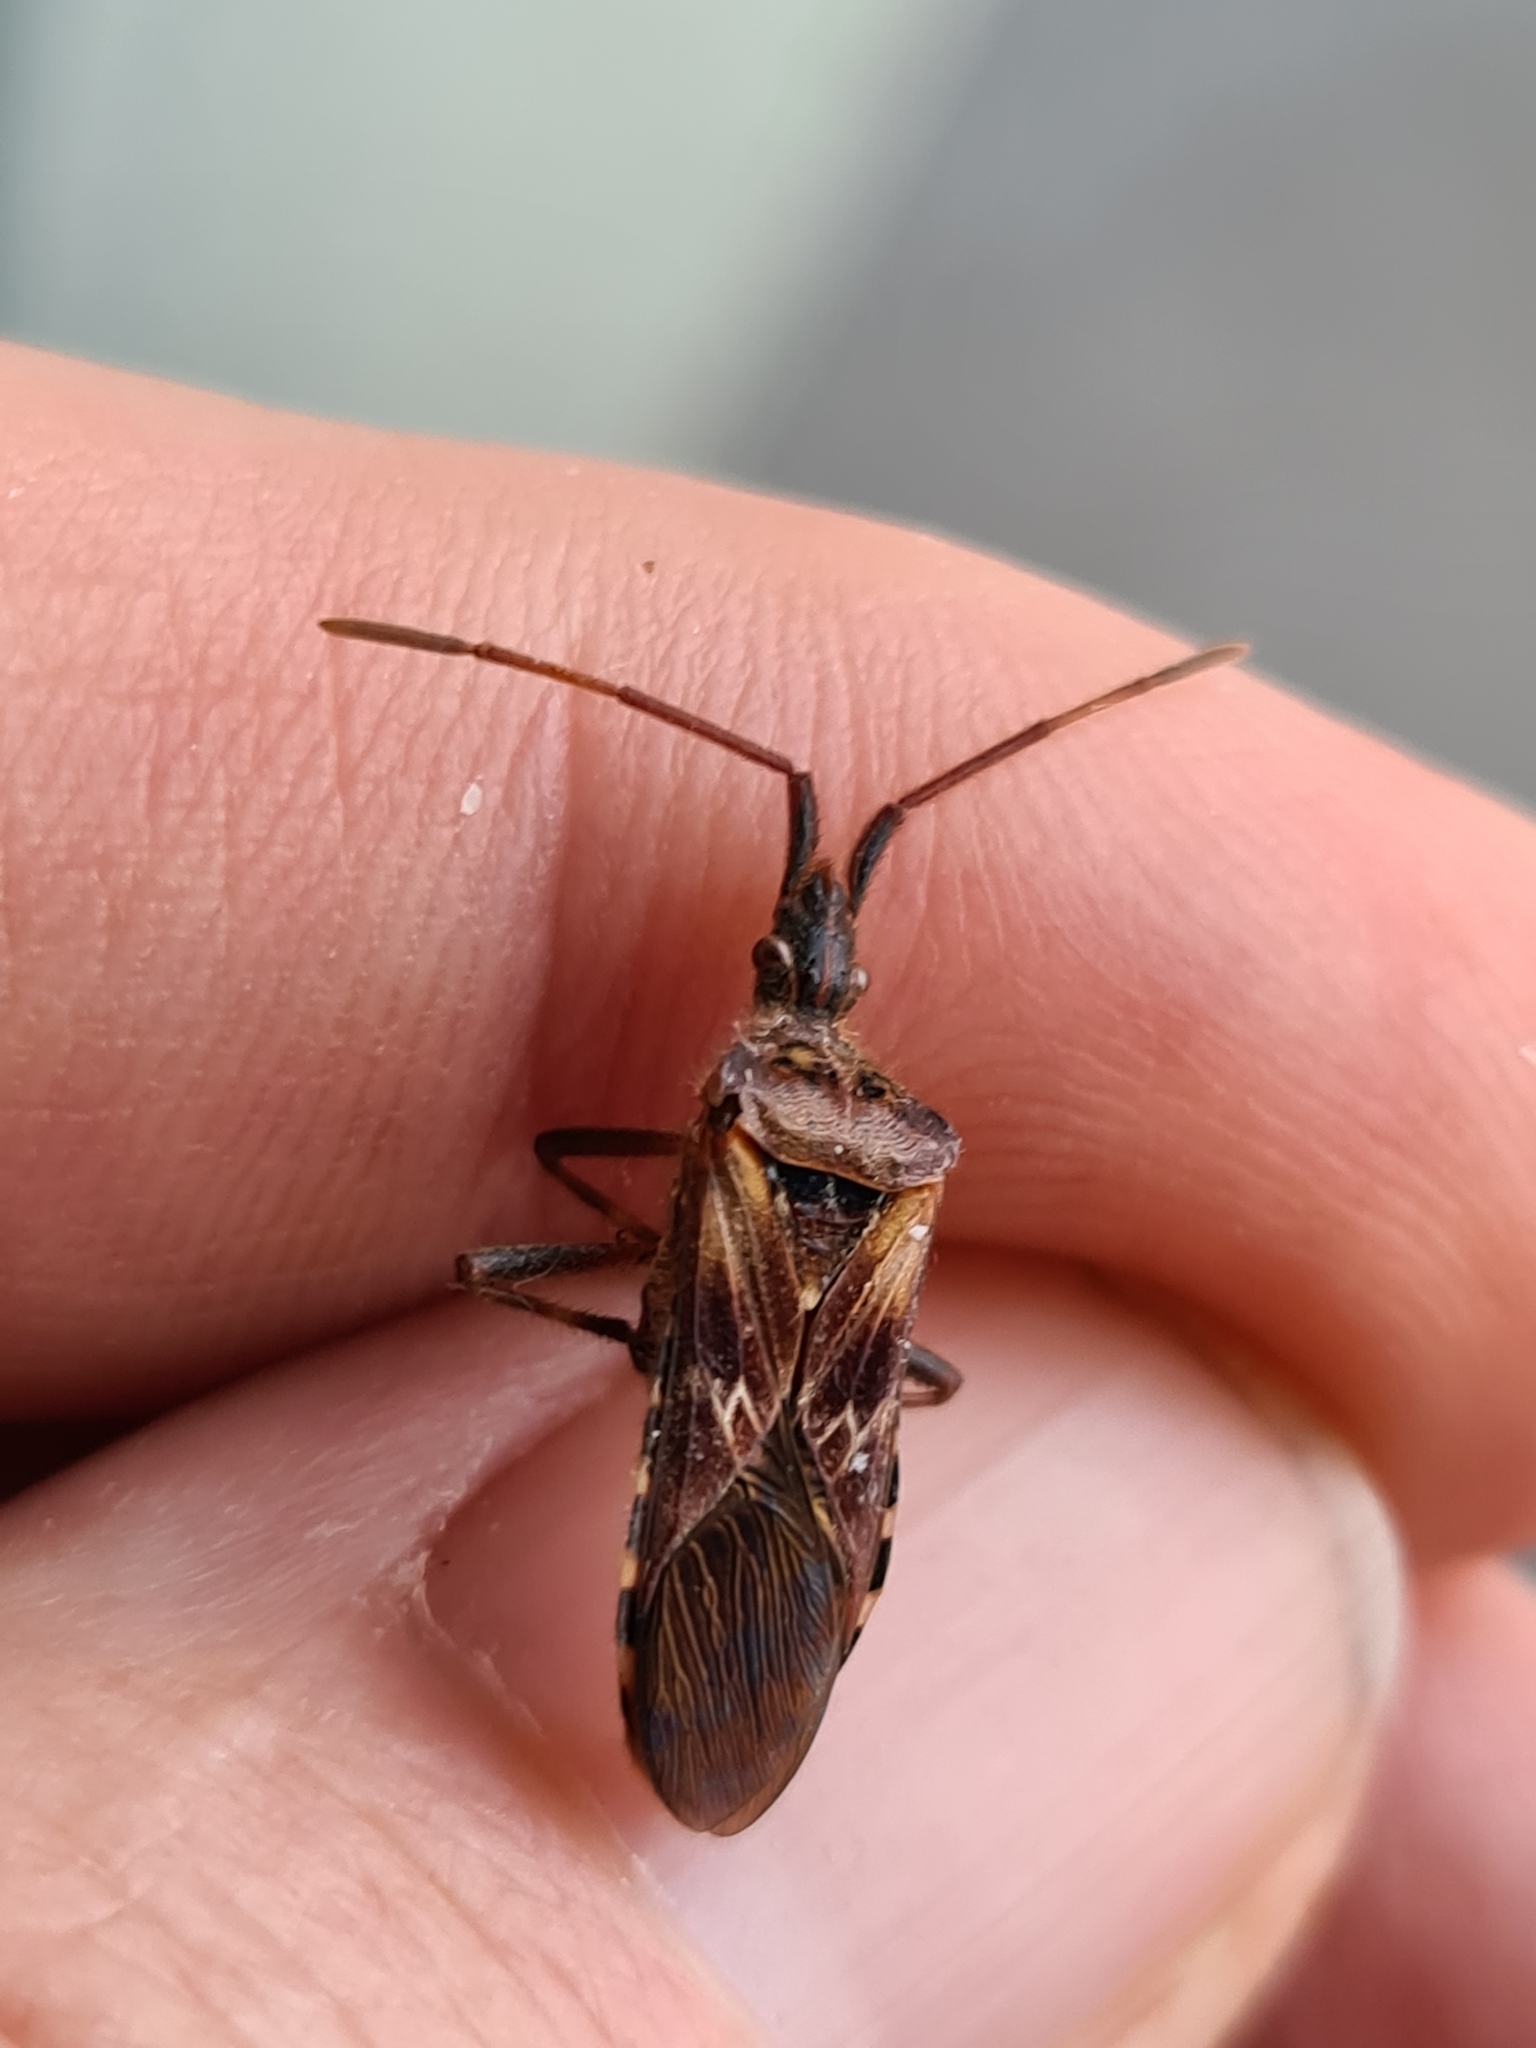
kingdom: Animalia
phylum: Arthropoda
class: Insecta
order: Hemiptera
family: Coreidae
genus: Leptoglossus
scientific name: Leptoglossus occidentalis
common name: Western conifer-seed bug
